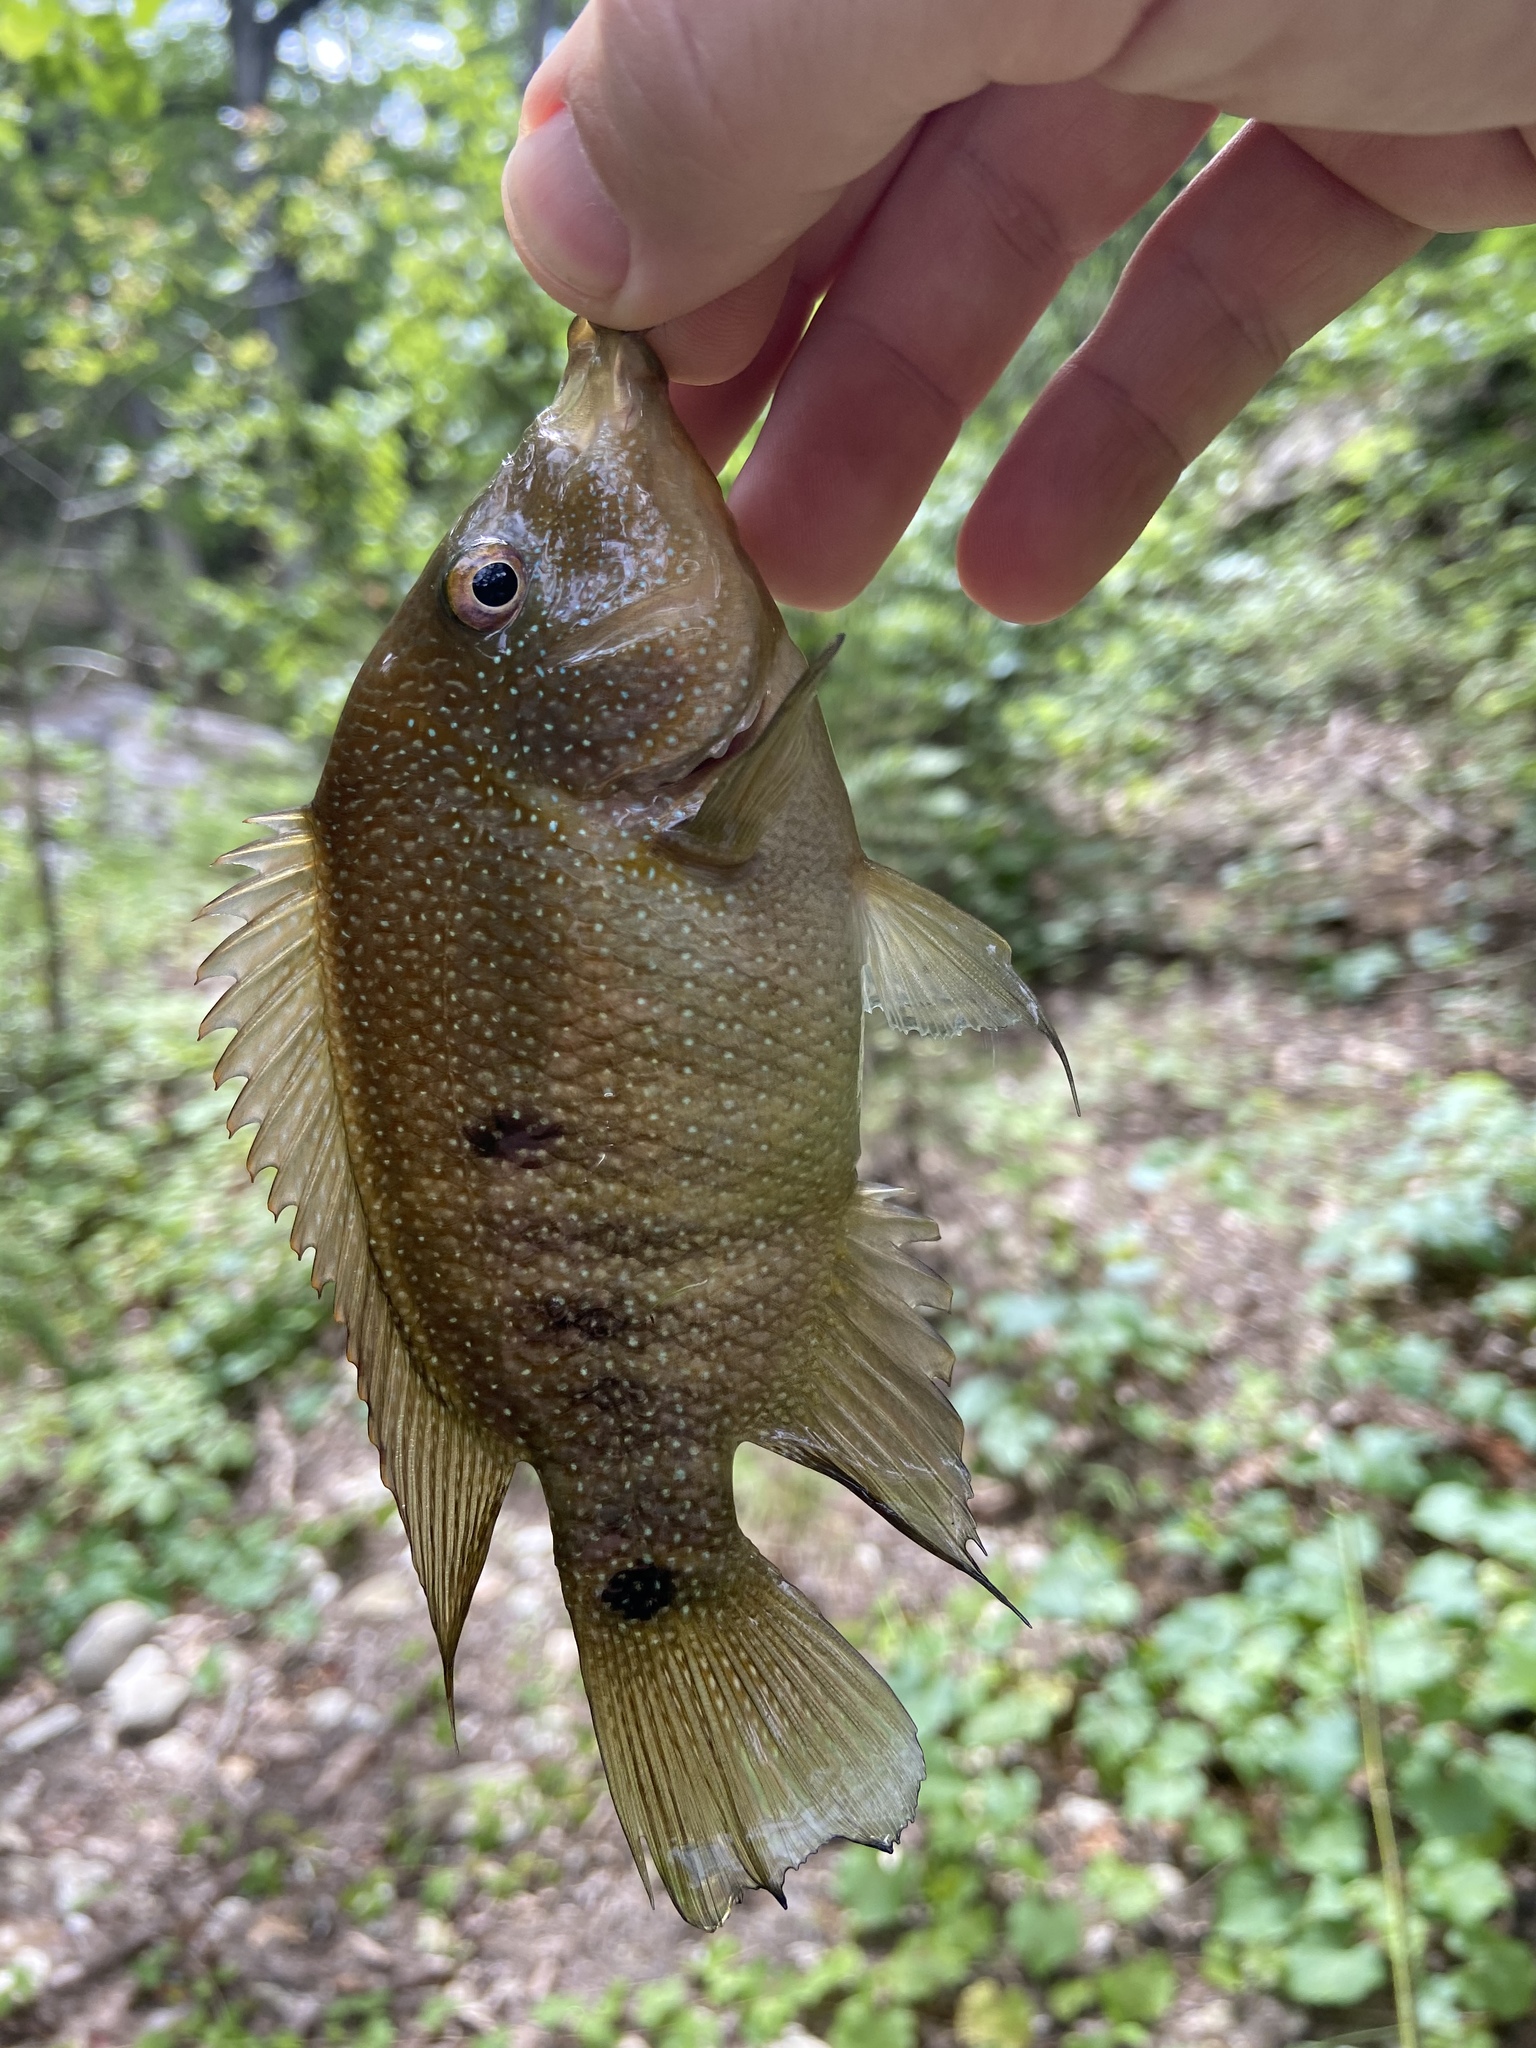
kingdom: Animalia
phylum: Chordata
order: Perciformes
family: Cichlidae
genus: Herichthys
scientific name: Herichthys cyanoguttatus
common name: Rio grande cichlid
